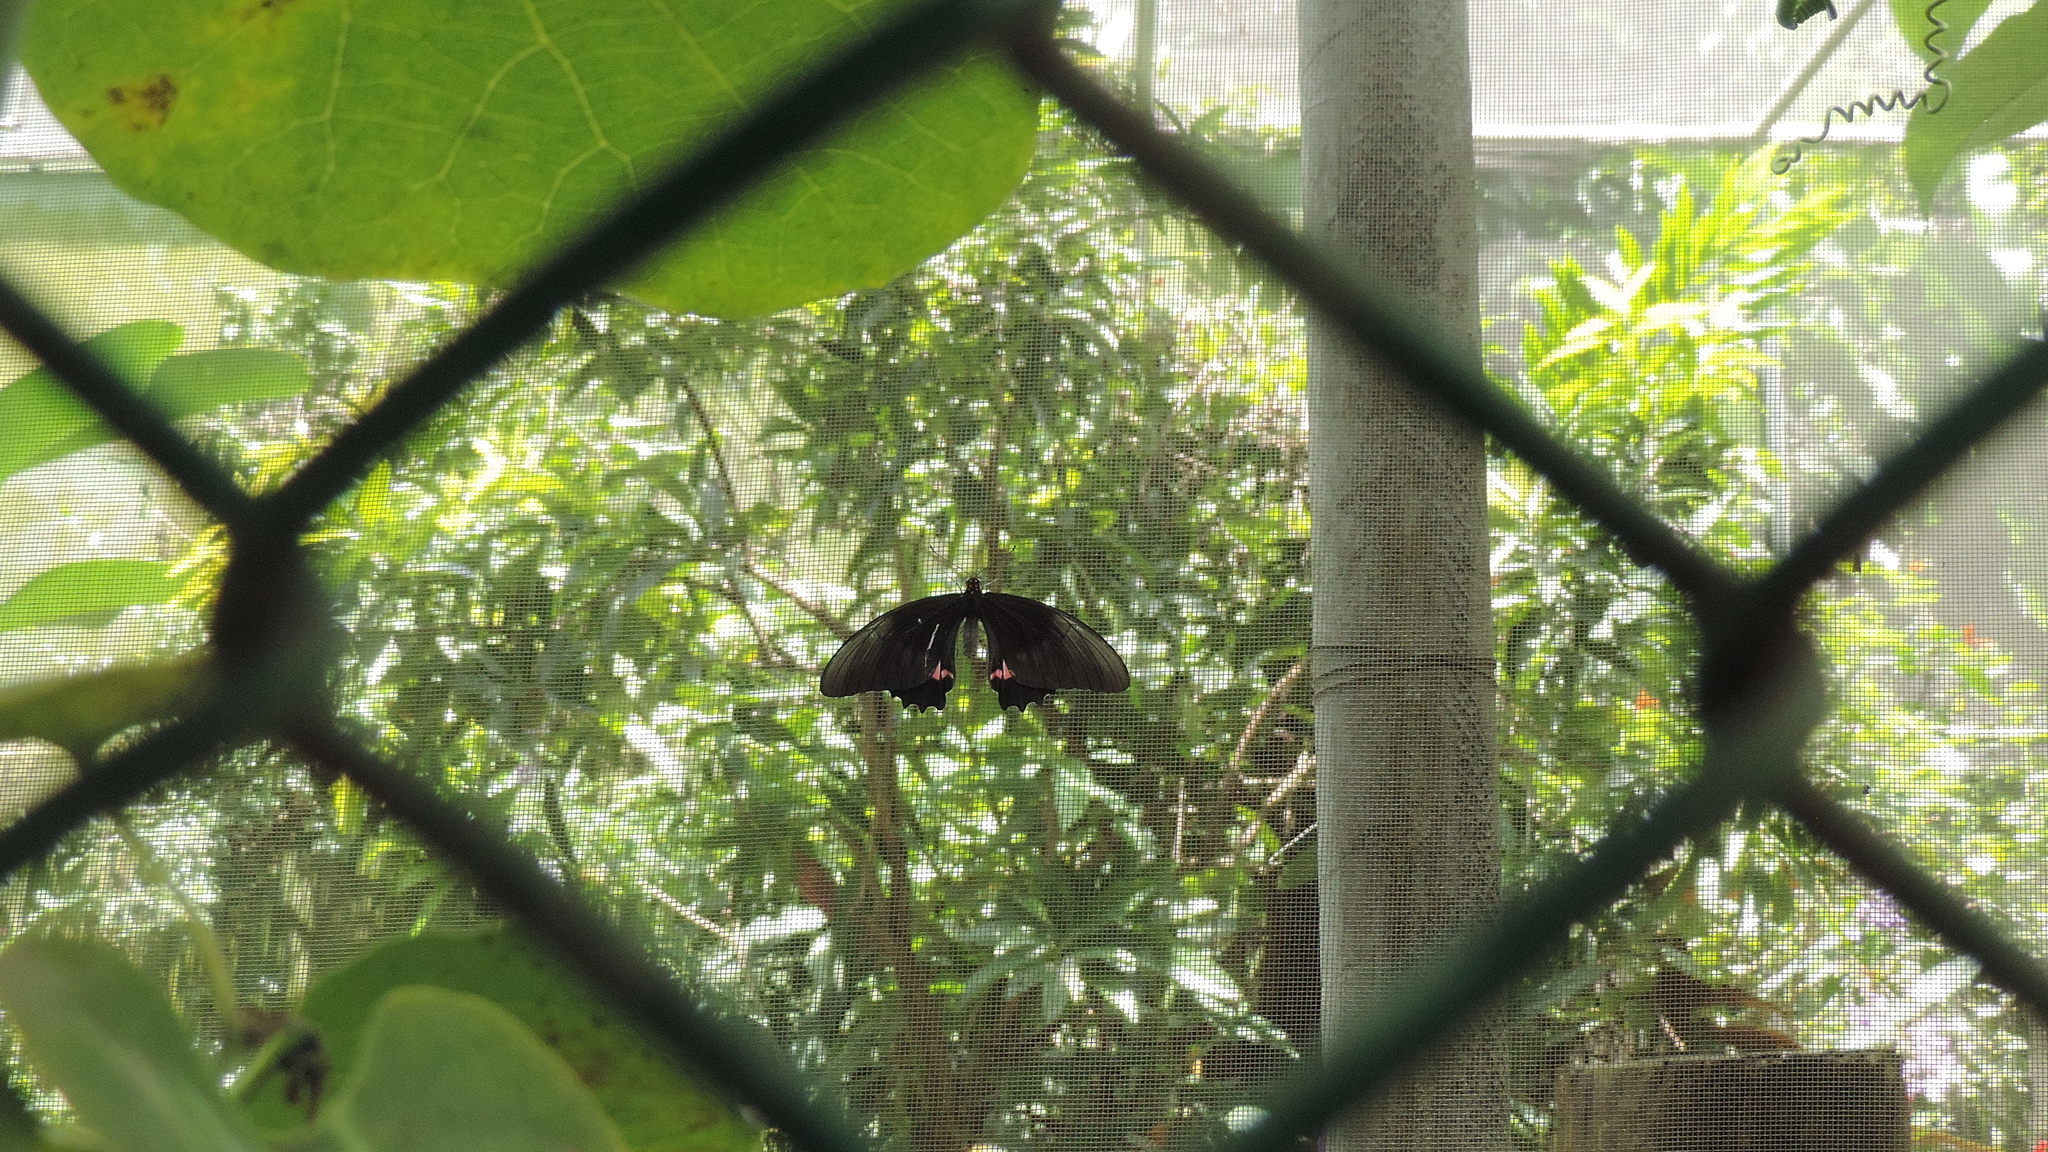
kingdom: Animalia
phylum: Arthropoda
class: Insecta
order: Lepidoptera
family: Papilionidae
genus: Papilio
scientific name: Papilio anchisiades
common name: Idaes swallowtail
